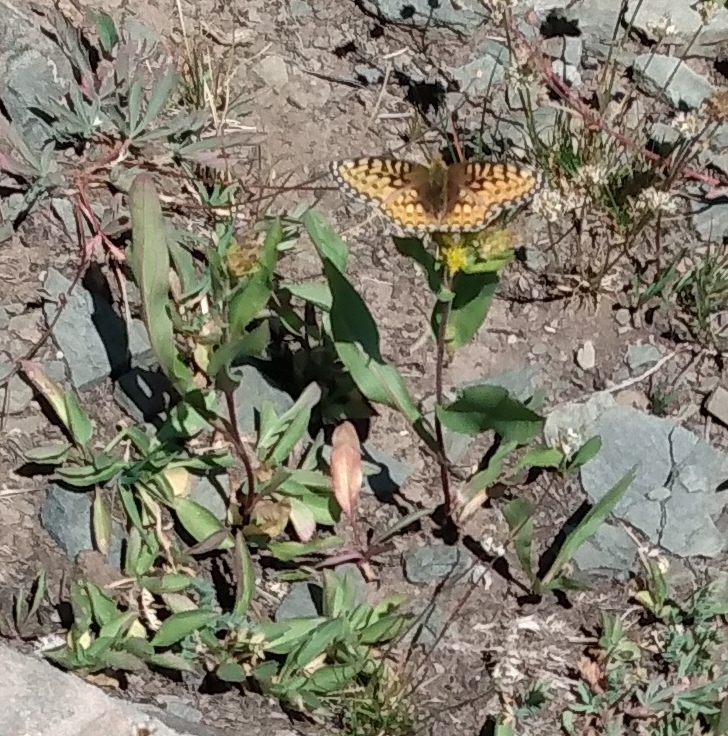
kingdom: Animalia
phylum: Arthropoda
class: Insecta
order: Lepidoptera
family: Nymphalidae
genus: Speyeria
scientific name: Speyeria mormonia
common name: Mormon fritillary
